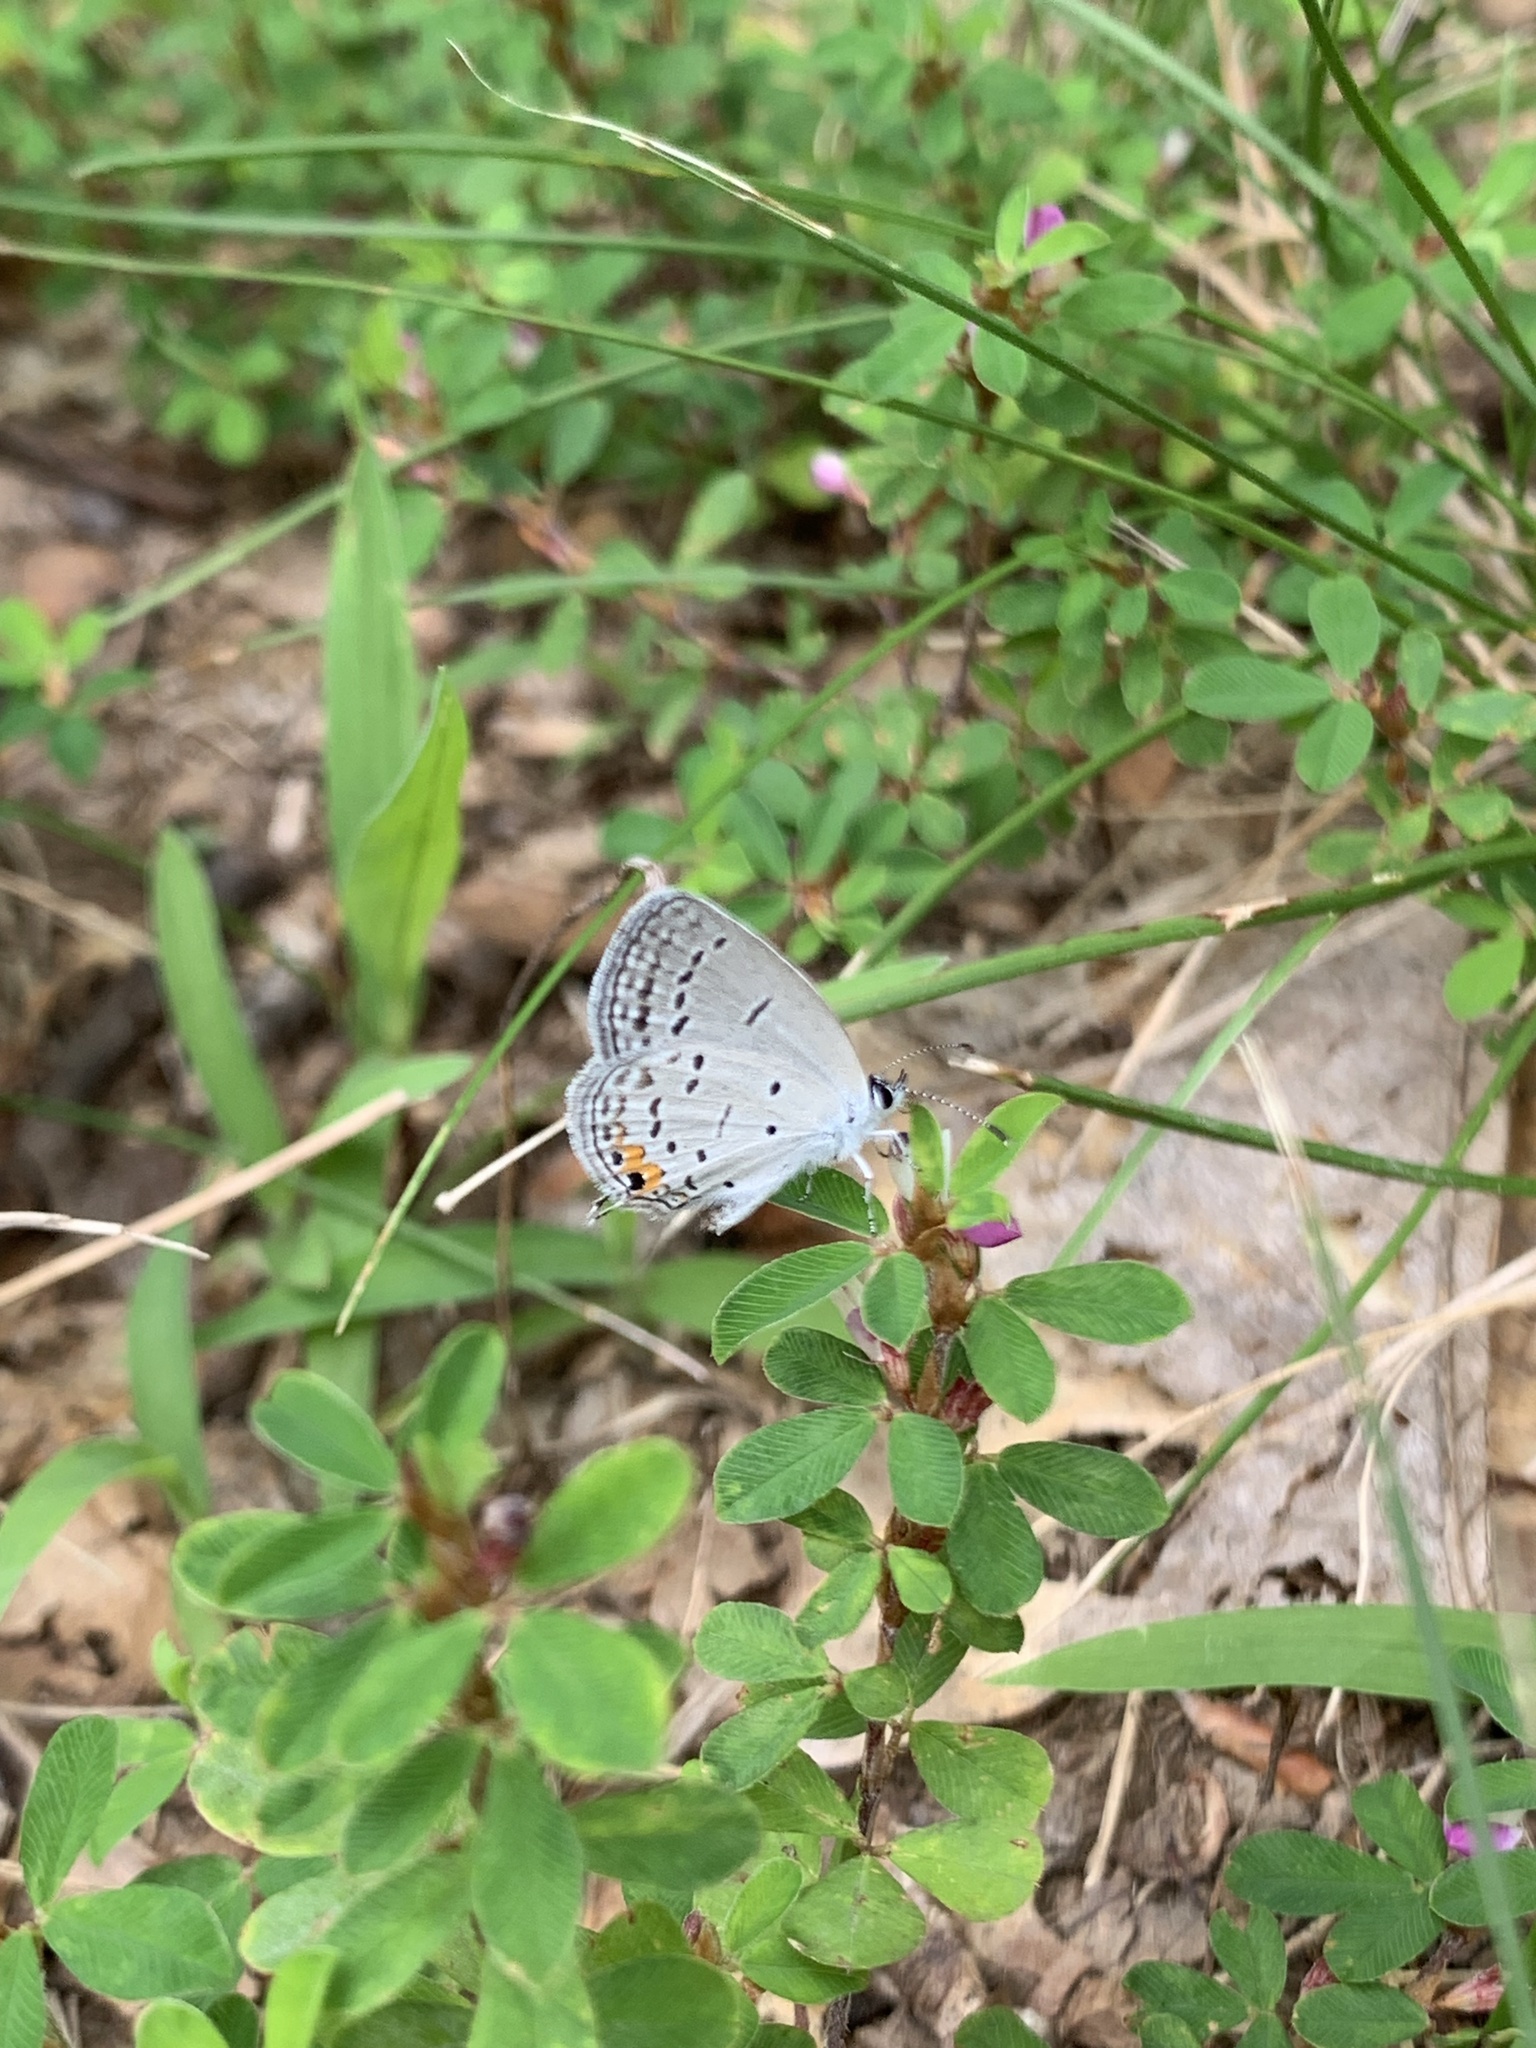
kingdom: Animalia
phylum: Arthropoda
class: Insecta
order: Lepidoptera
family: Lycaenidae
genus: Elkalyce
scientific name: Elkalyce comyntas
